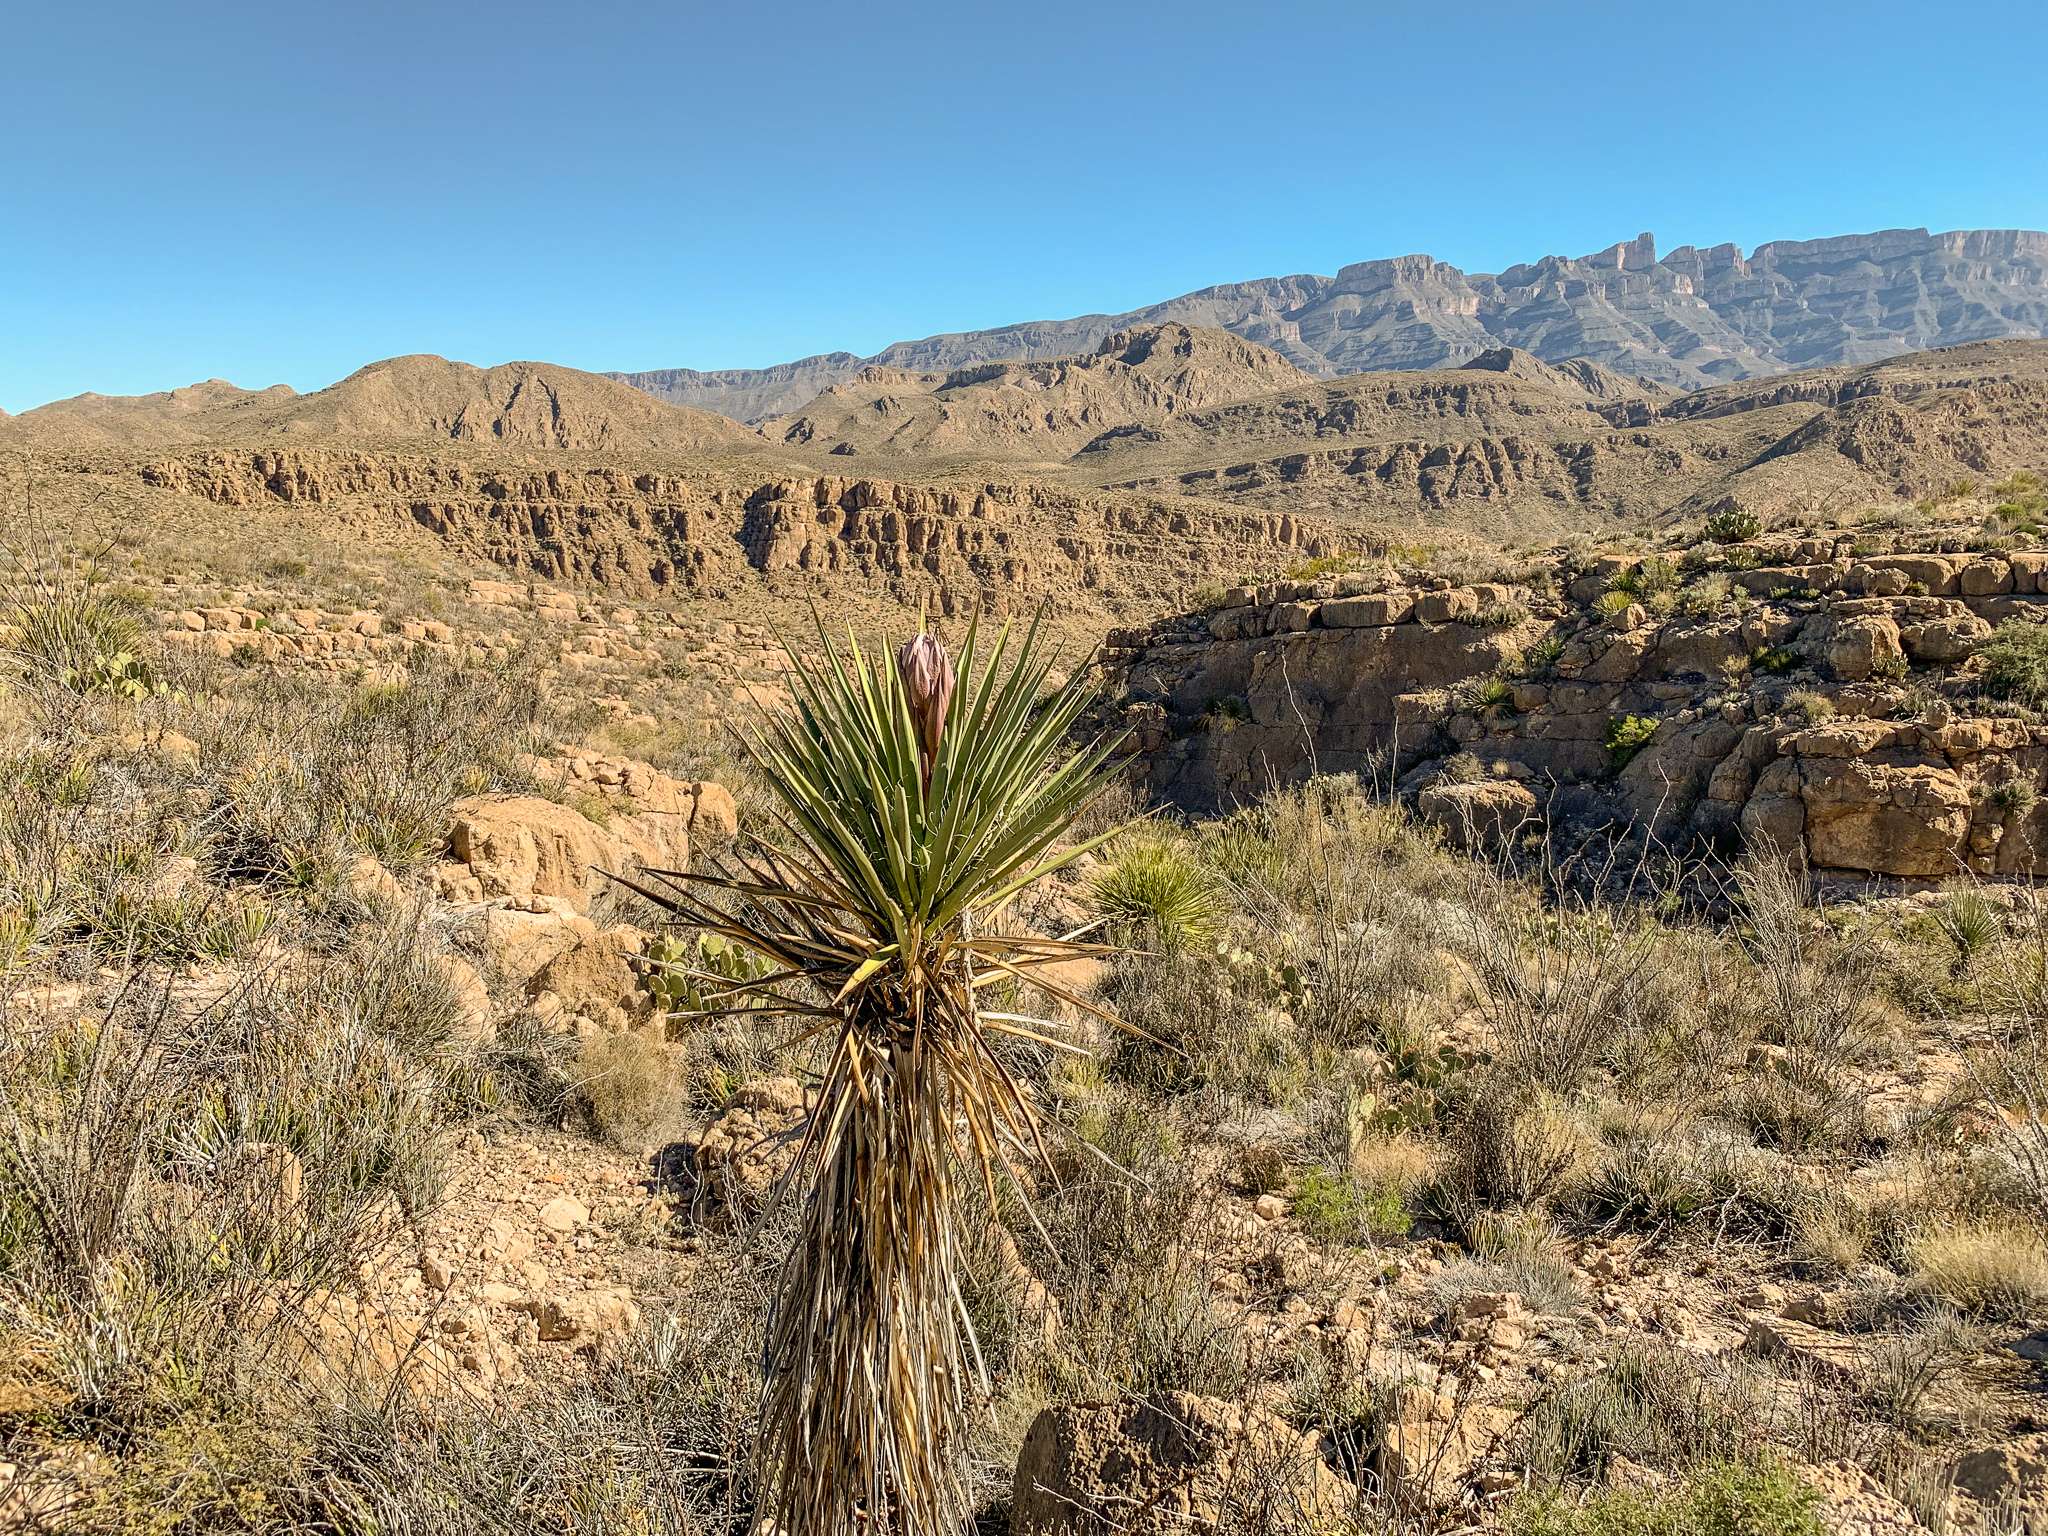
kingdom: Plantae
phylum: Tracheophyta
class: Liliopsida
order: Asparagales
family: Asparagaceae
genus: Yucca
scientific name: Yucca treculiana
